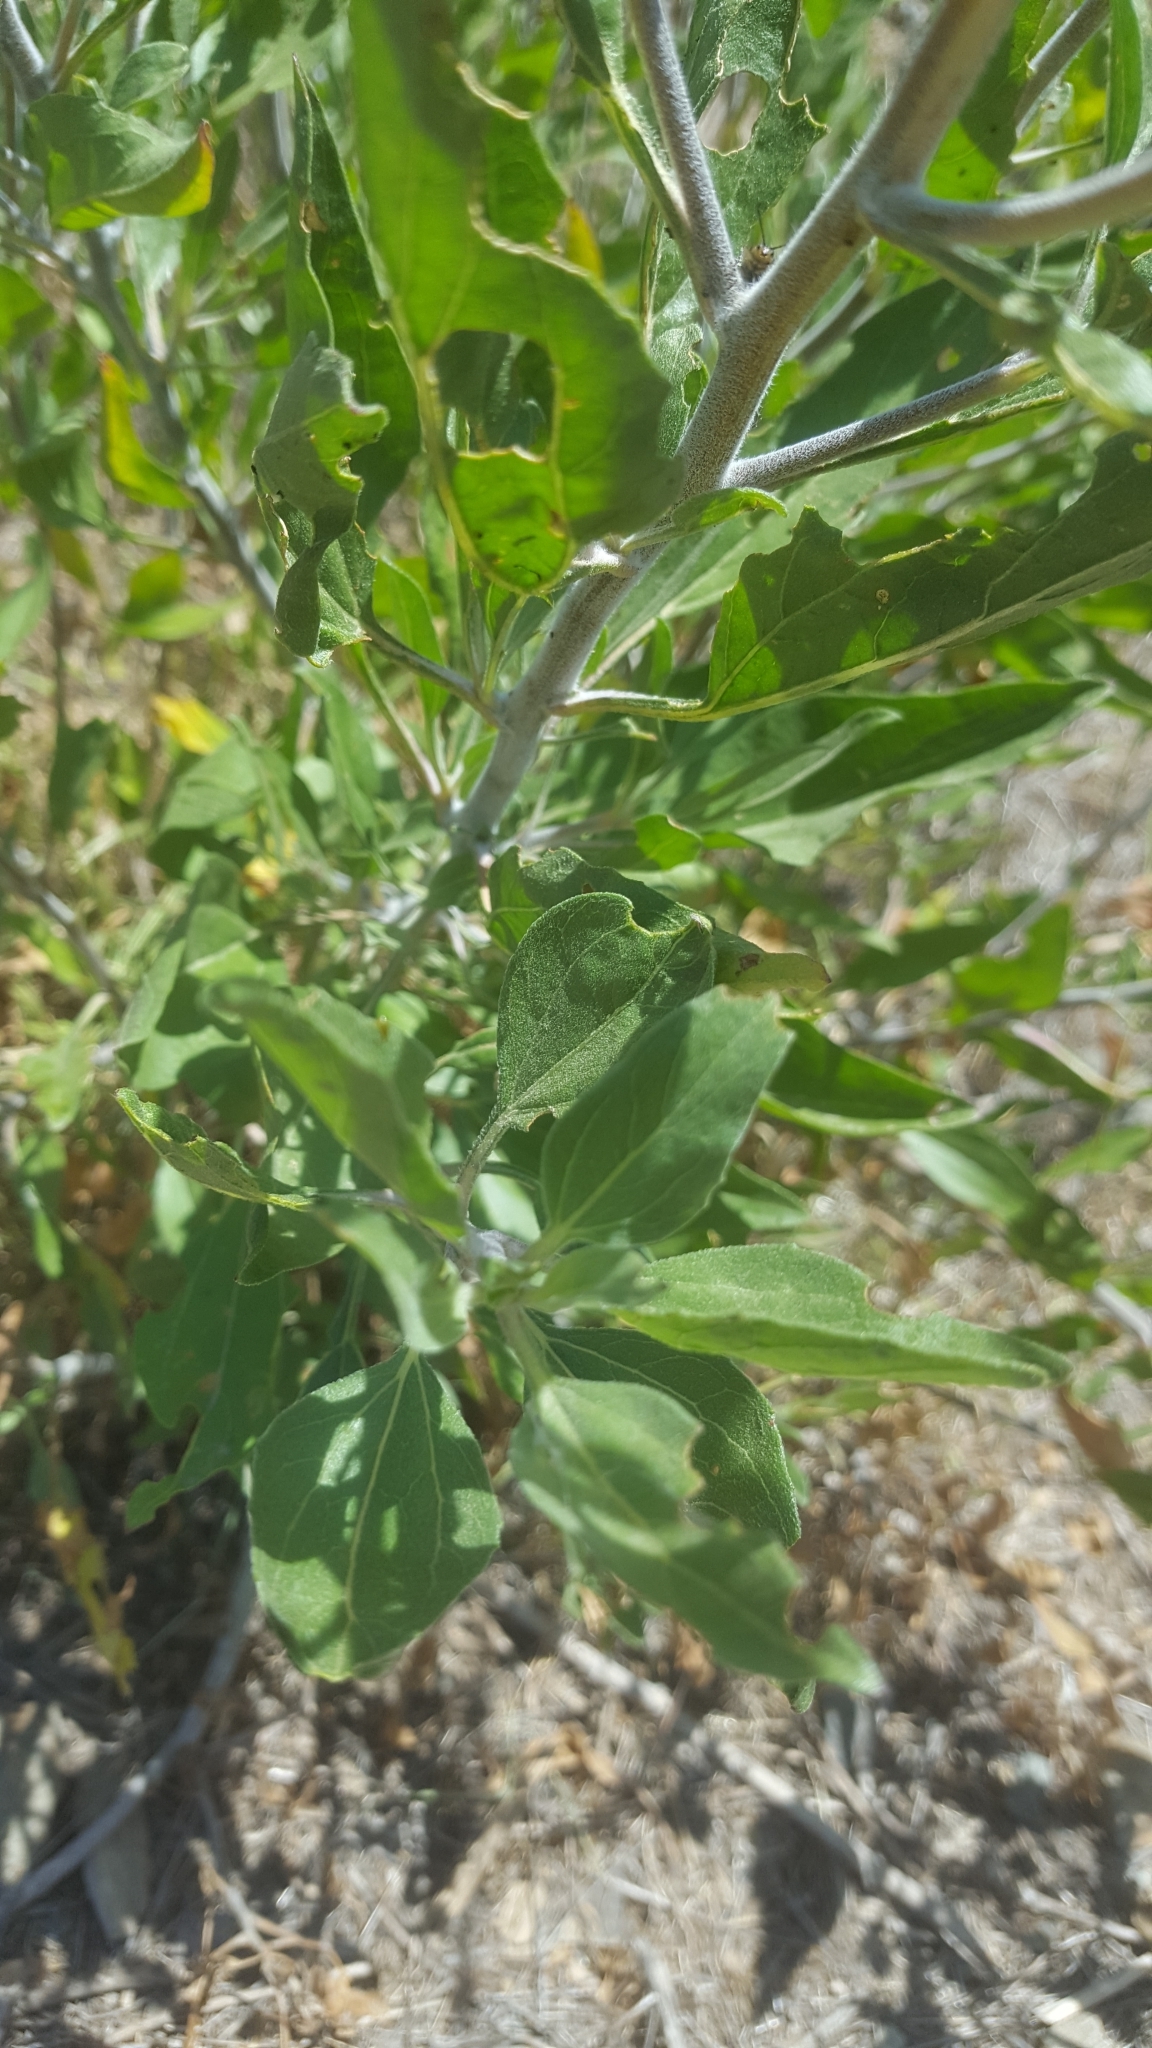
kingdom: Plantae
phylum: Tracheophyta
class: Magnoliopsida
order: Asterales
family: Asteraceae
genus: Encelia
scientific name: Encelia californica
